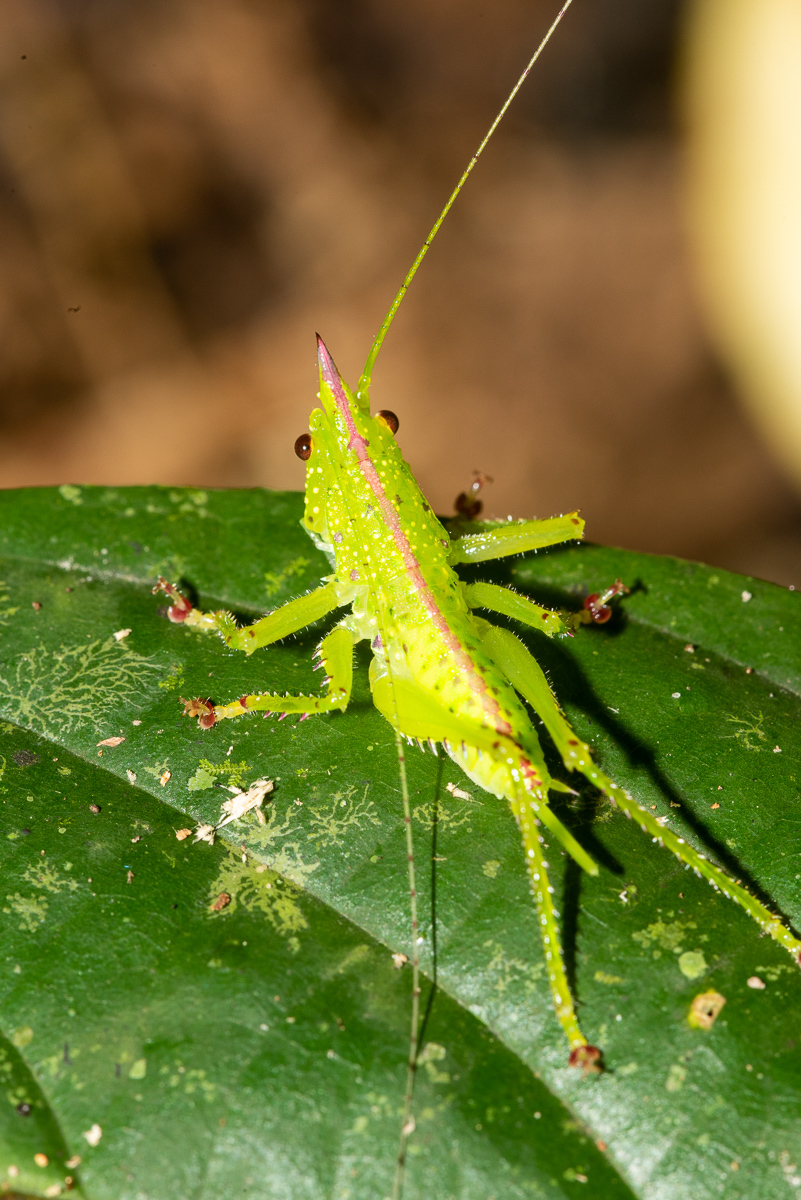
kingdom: Animalia
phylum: Arthropoda
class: Insecta
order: Orthoptera
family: Tettigoniidae
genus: Copiphora
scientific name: Copiphora gracilis
